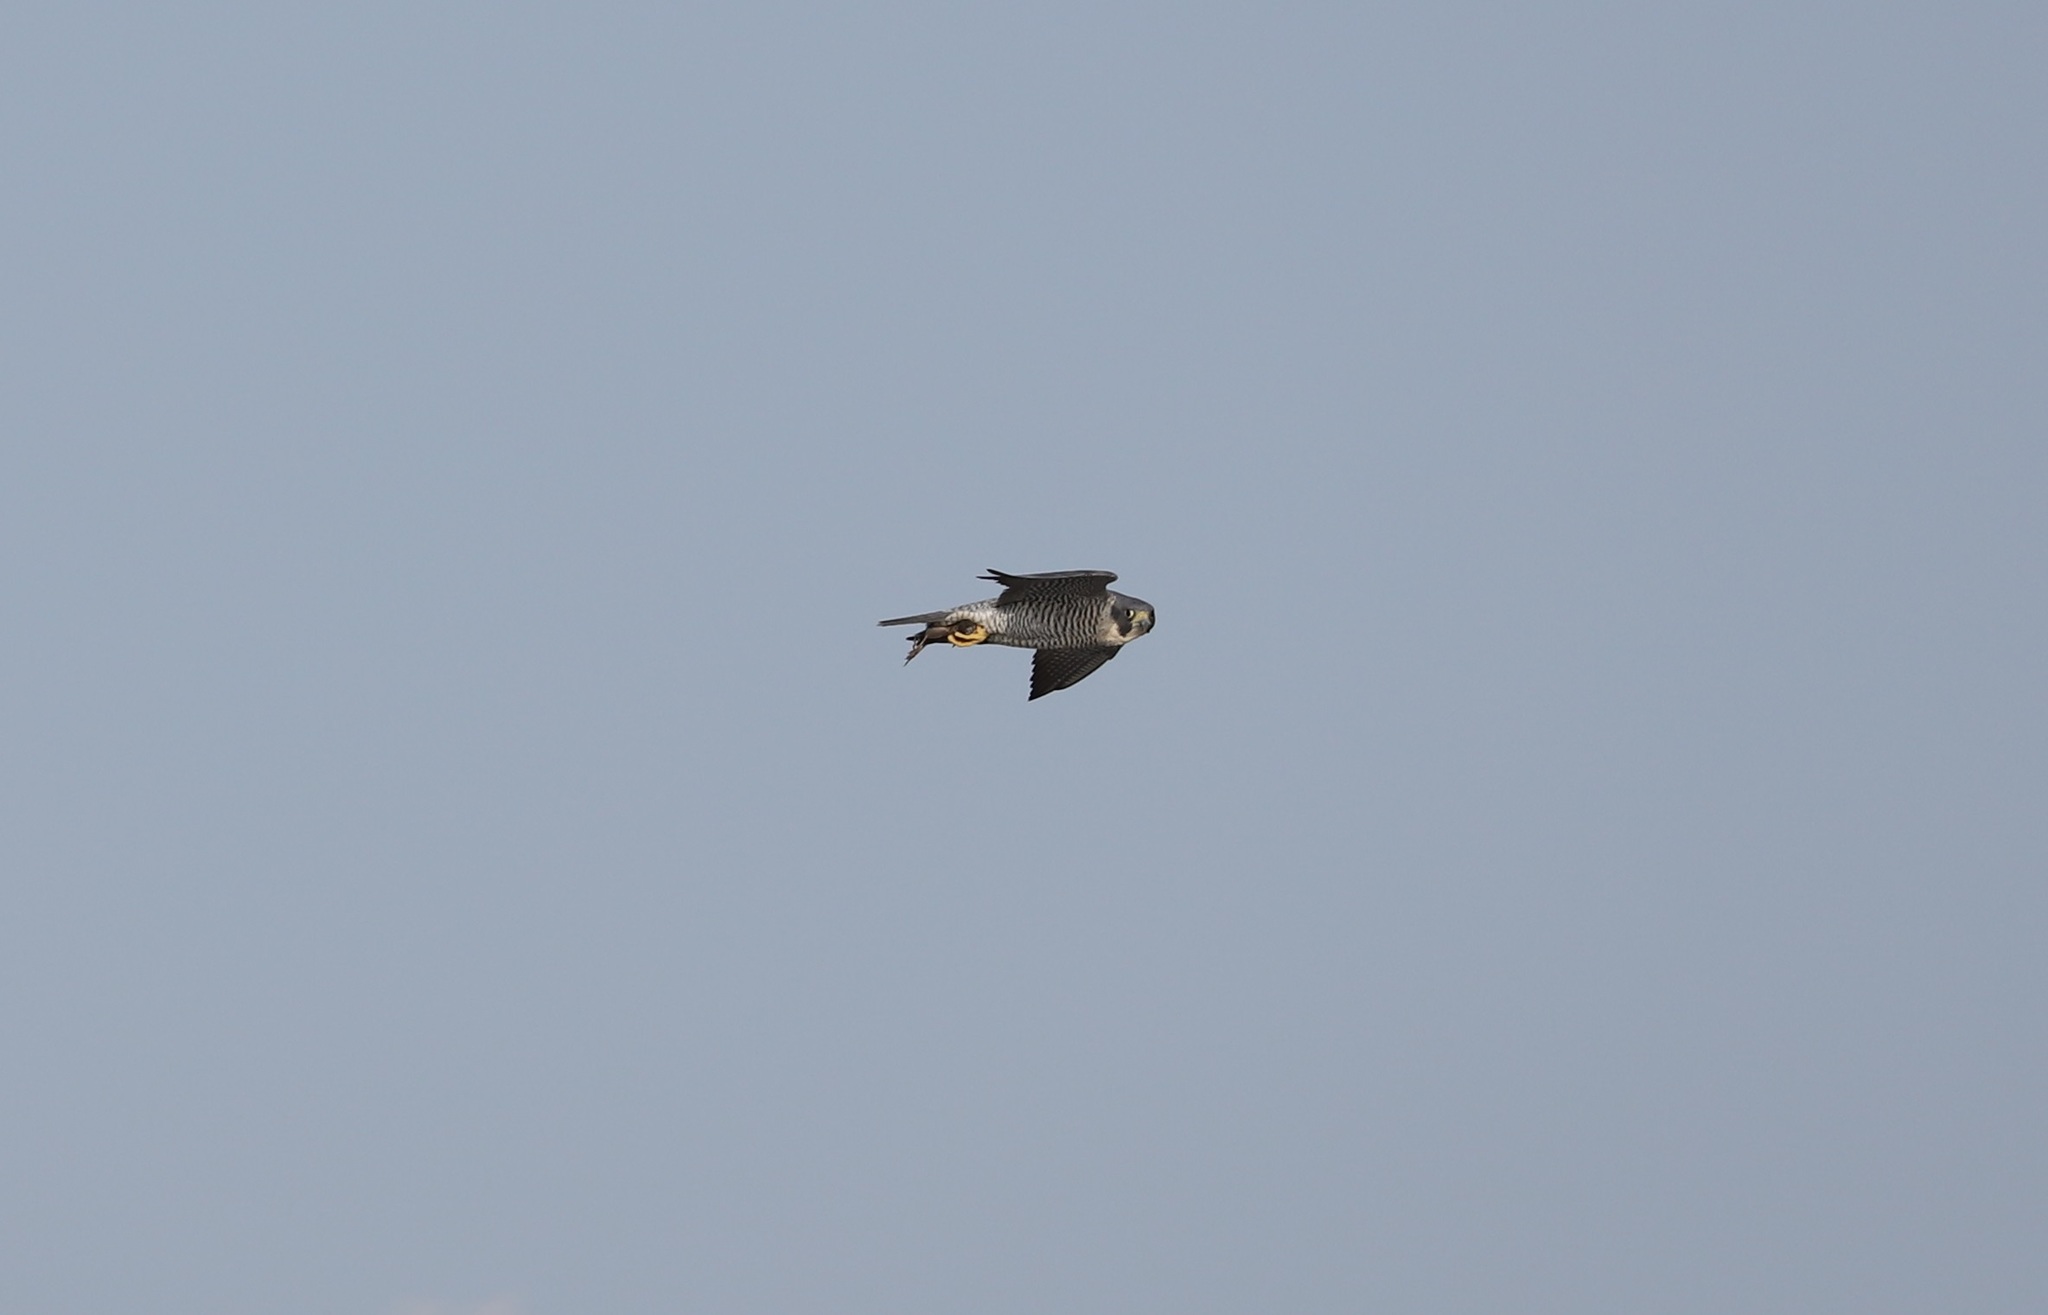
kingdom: Animalia
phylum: Chordata
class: Aves
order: Falconiformes
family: Falconidae
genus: Falco
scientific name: Falco peregrinus
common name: Peregrine falcon
